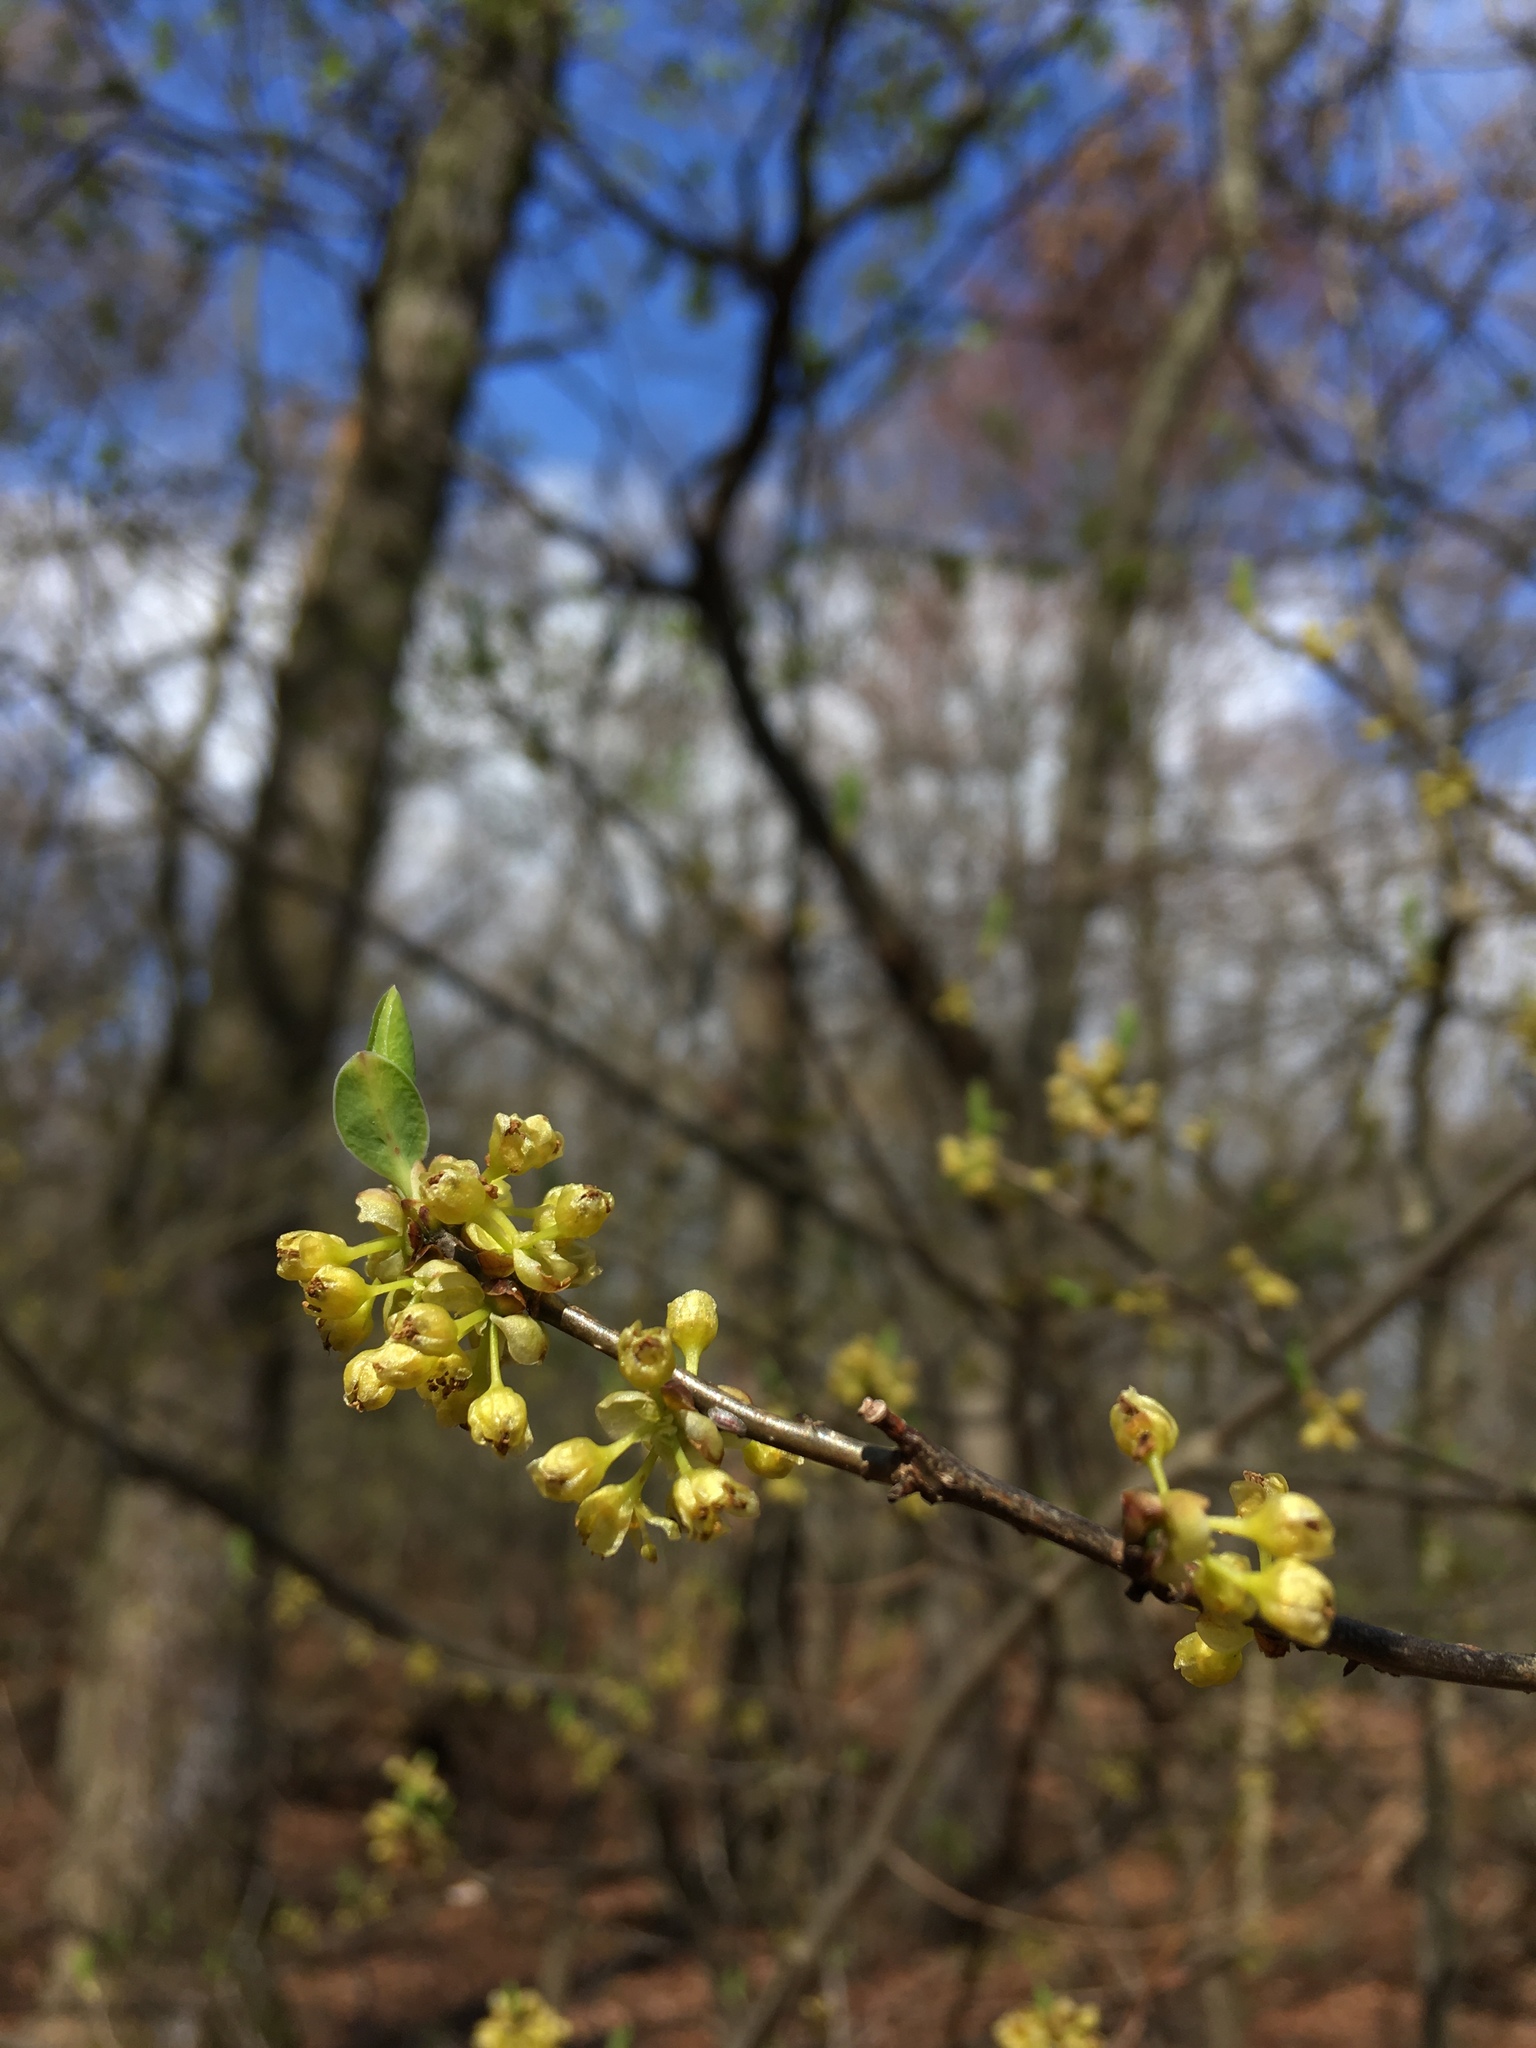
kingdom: Plantae
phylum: Tracheophyta
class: Magnoliopsida
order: Laurales
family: Lauraceae
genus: Lindera
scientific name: Lindera benzoin
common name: Spicebush
